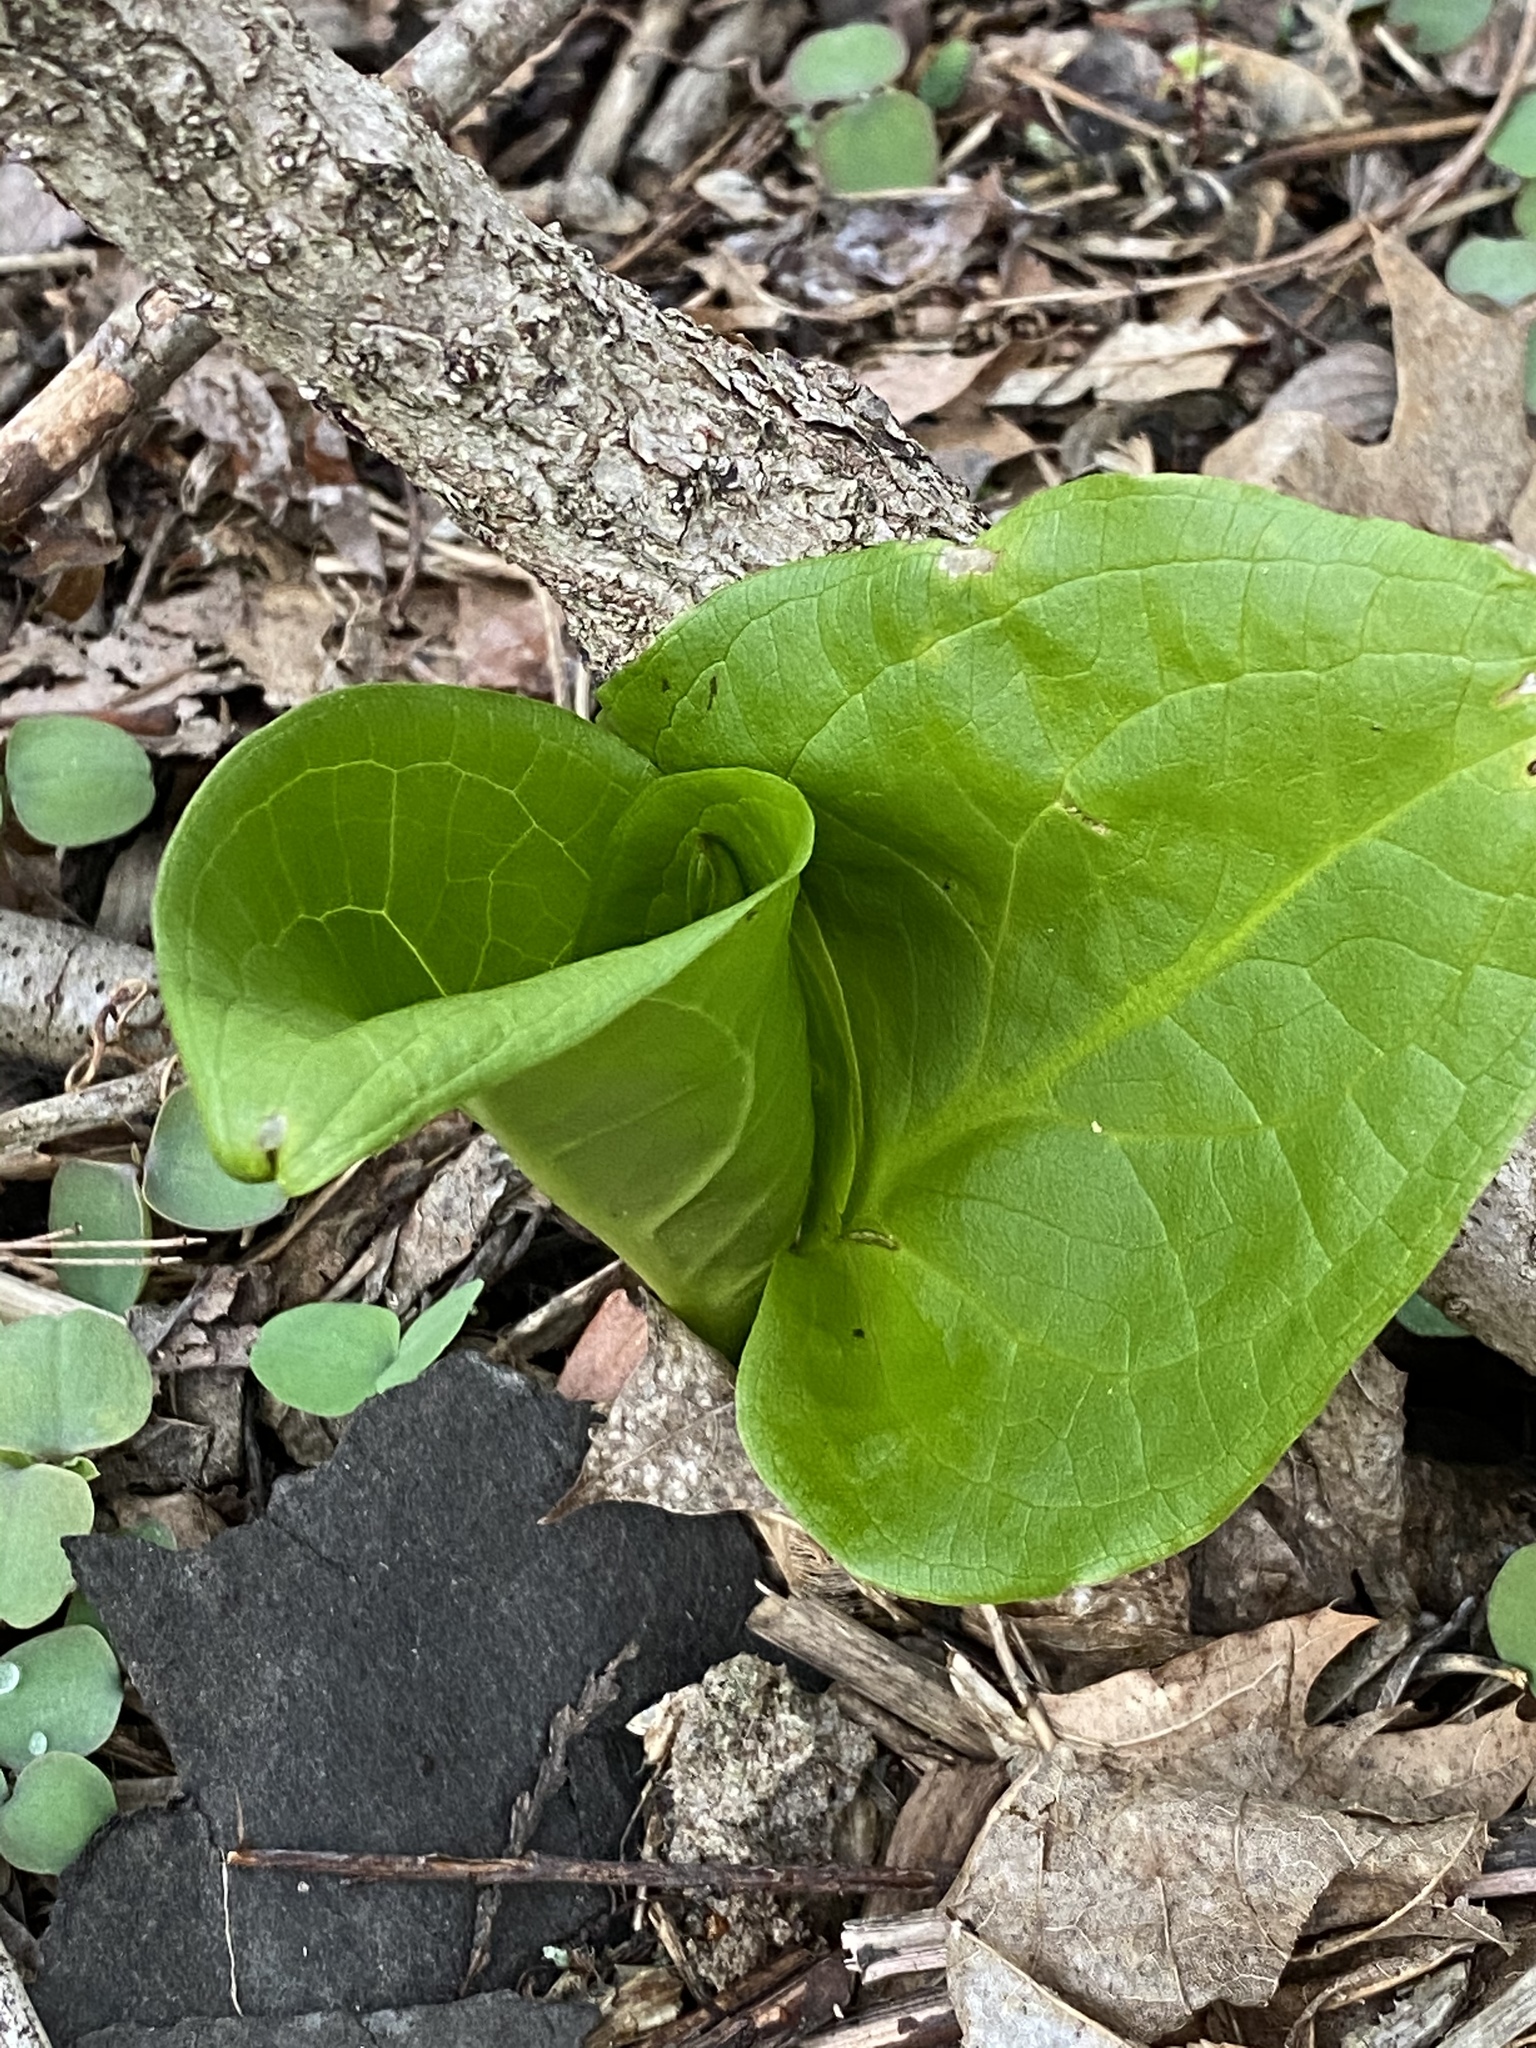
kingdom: Plantae
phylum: Tracheophyta
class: Liliopsida
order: Alismatales
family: Araceae
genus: Symplocarpus
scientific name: Symplocarpus foetidus
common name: Eastern skunk cabbage
